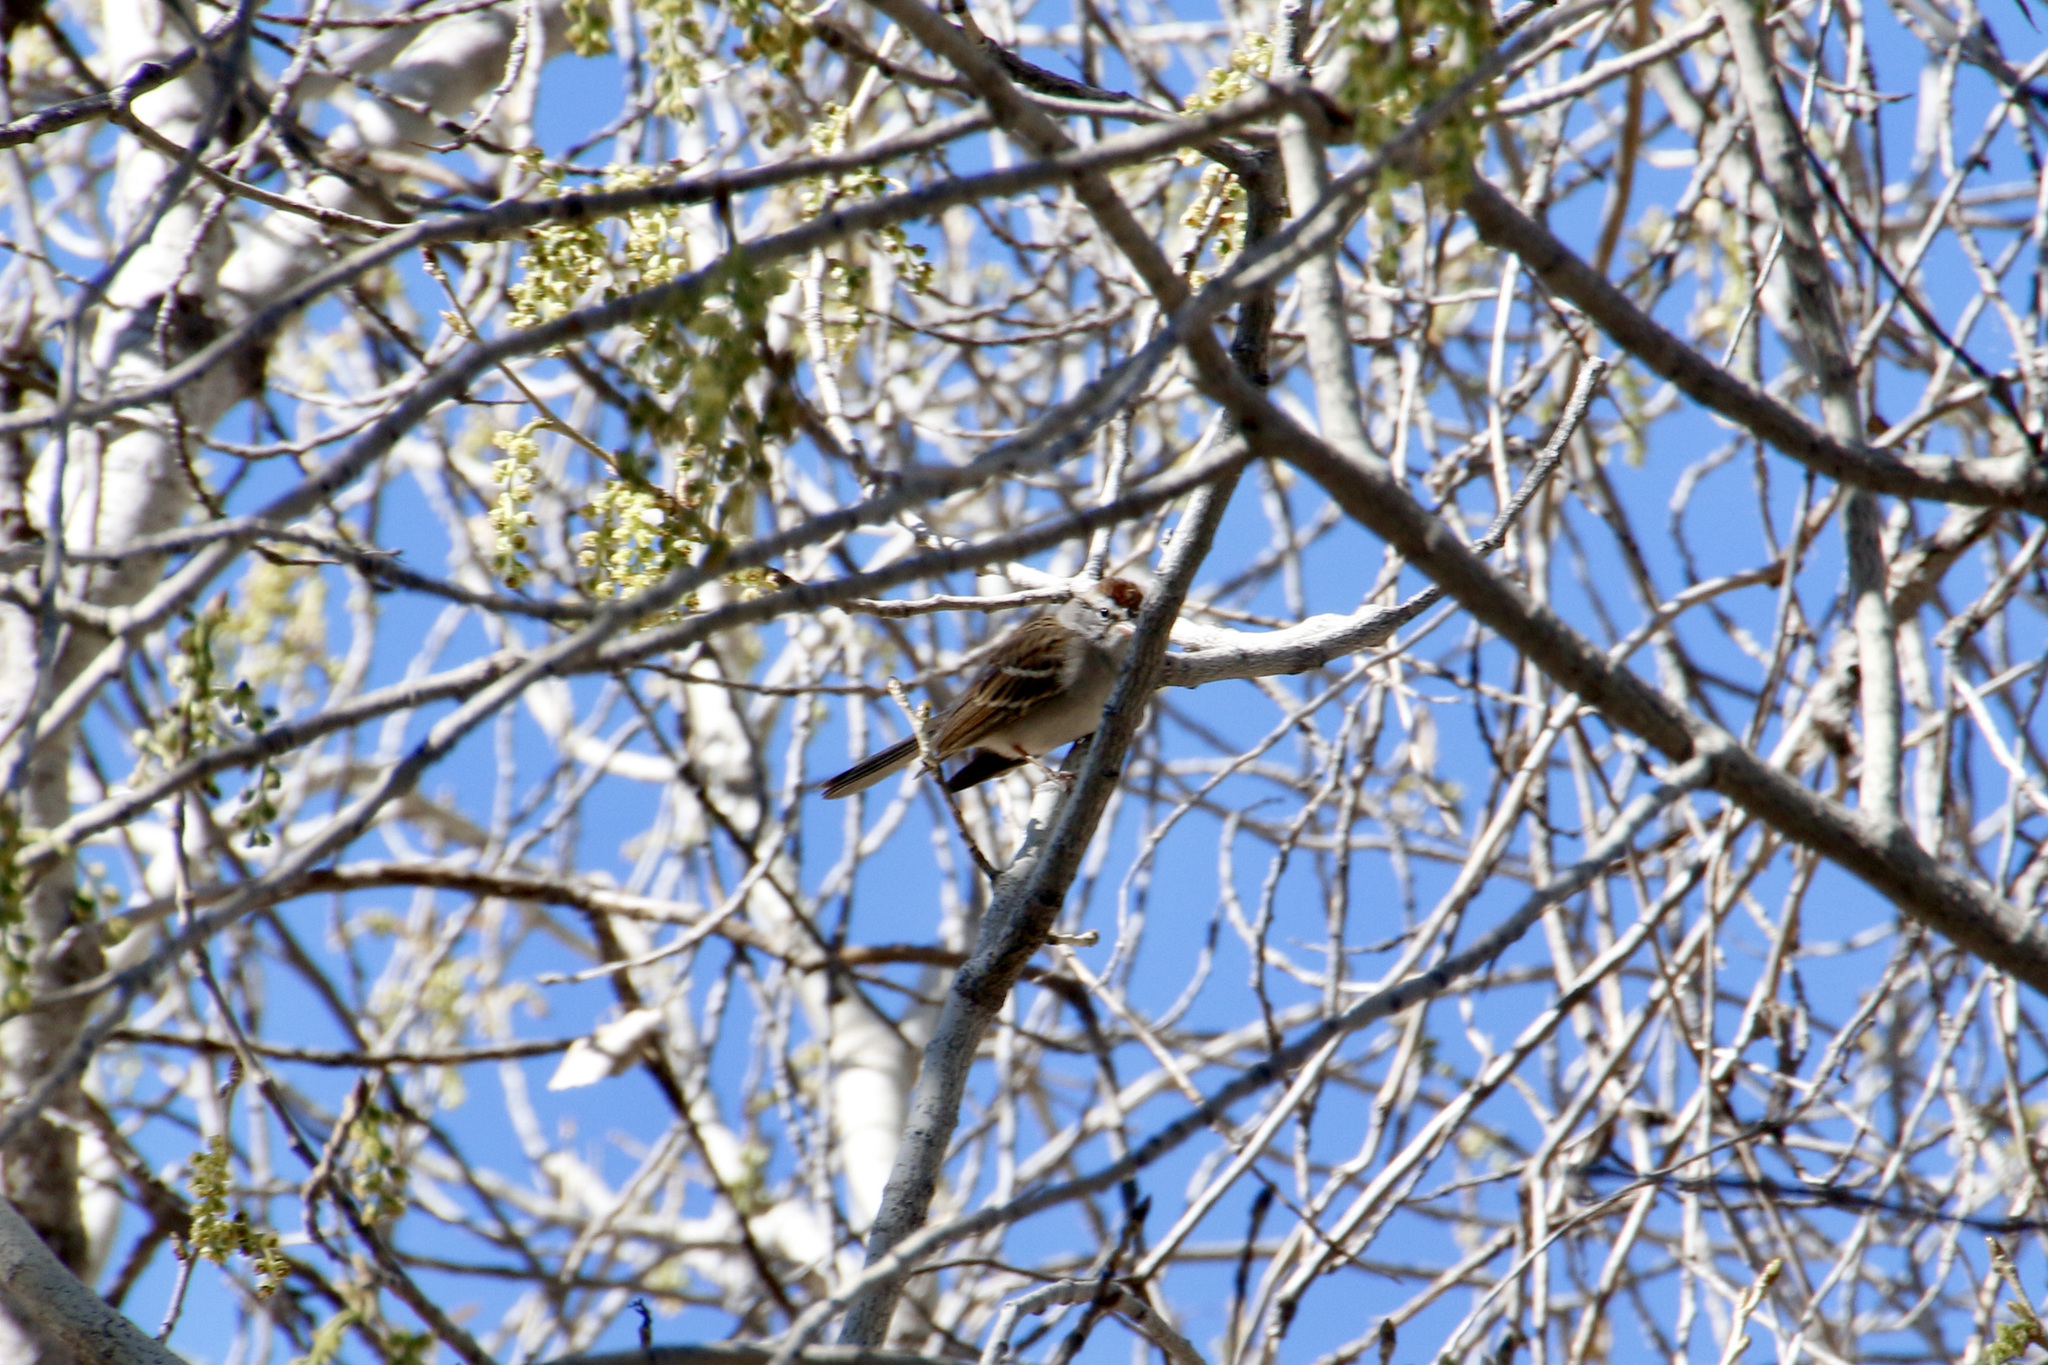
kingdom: Animalia
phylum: Chordata
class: Aves
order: Passeriformes
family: Passerellidae
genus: Spizella
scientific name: Spizella passerina
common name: Chipping sparrow
